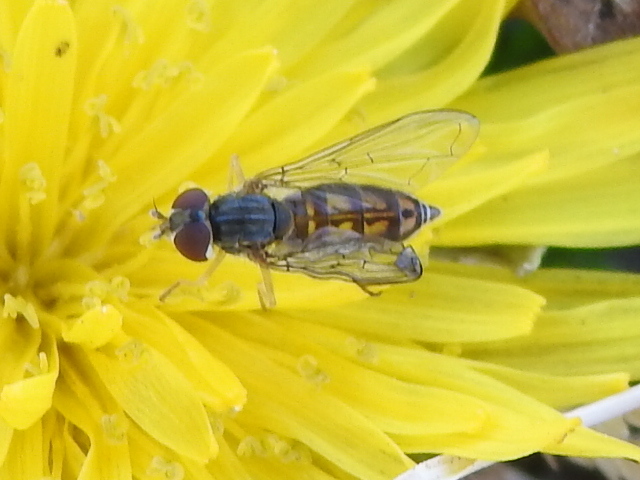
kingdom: Animalia
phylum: Arthropoda
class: Insecta
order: Diptera
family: Syrphidae
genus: Toxomerus
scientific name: Toxomerus marginatus
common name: Syrphid fly
